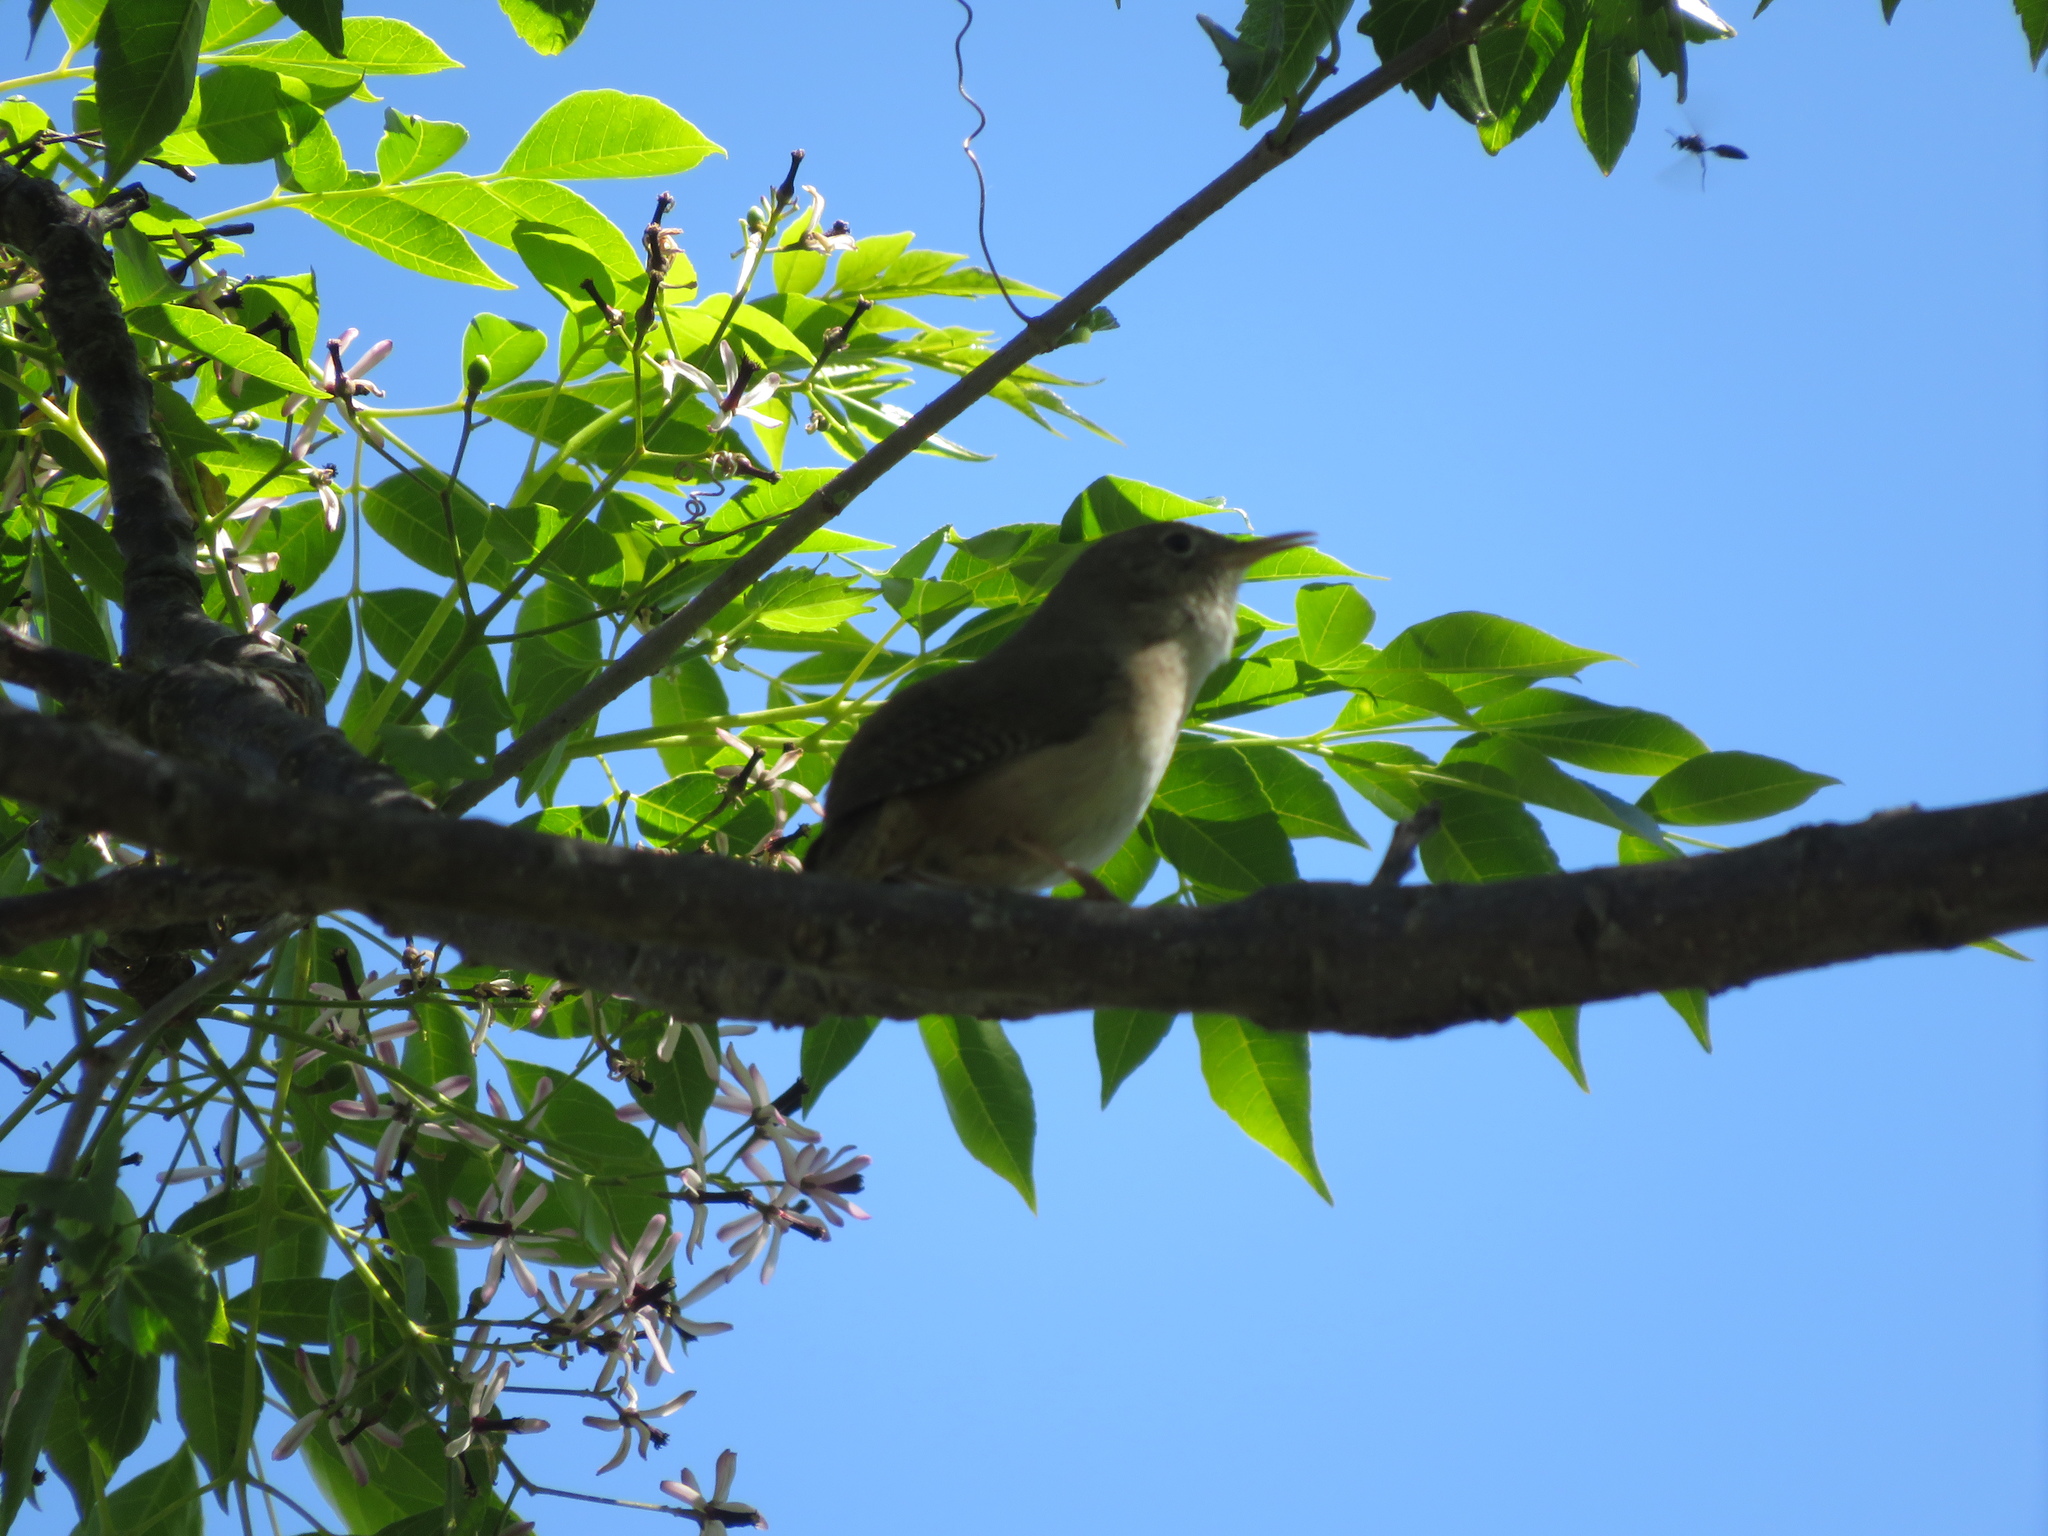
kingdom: Animalia
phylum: Chordata
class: Aves
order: Passeriformes
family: Troglodytidae
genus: Troglodytes
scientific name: Troglodytes aedon
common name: House wren
